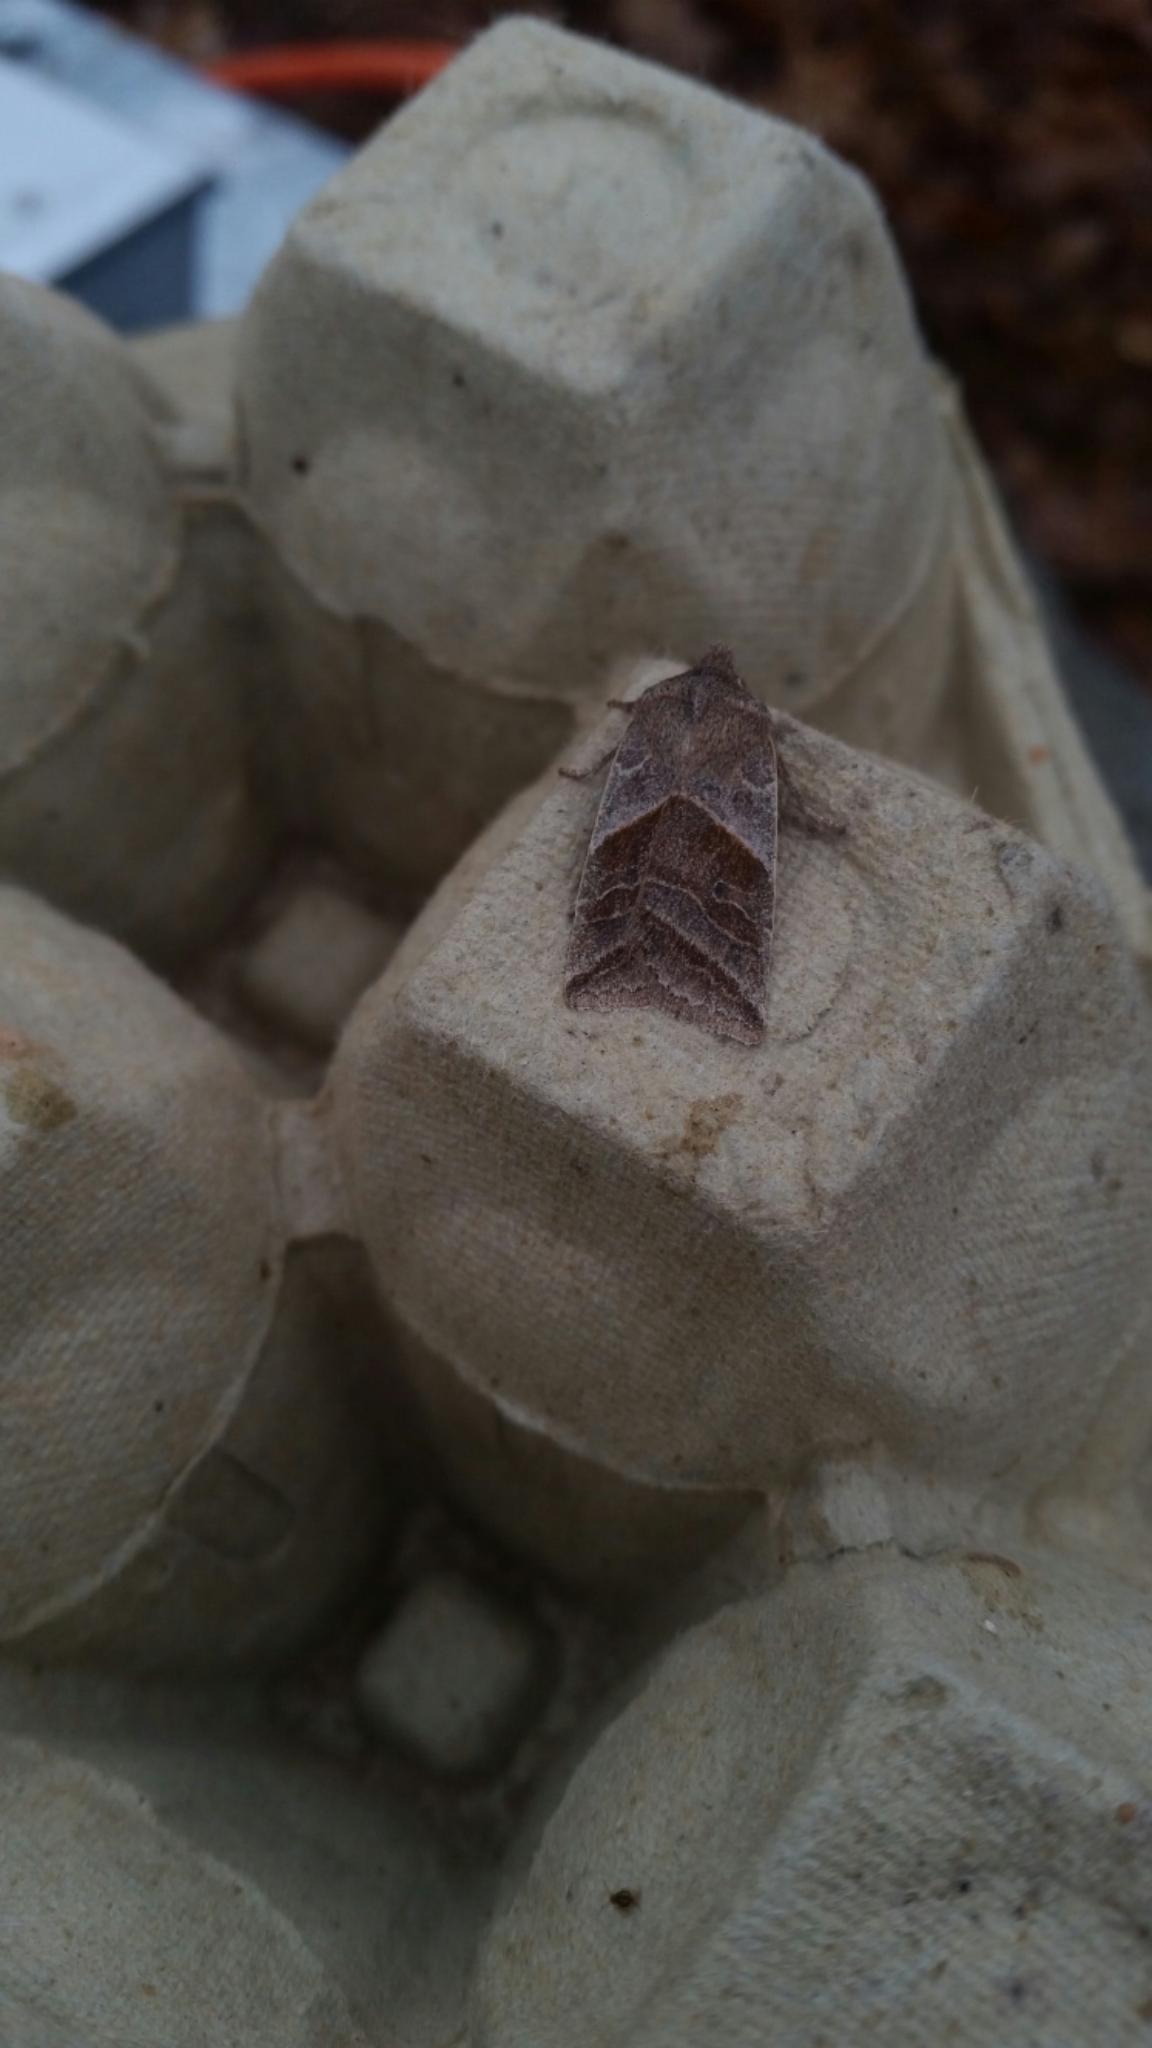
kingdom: Animalia
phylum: Arthropoda
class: Insecta
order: Lepidoptera
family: Noctuidae
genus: Eupsilia
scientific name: Eupsilia devia
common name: Lost sallow
